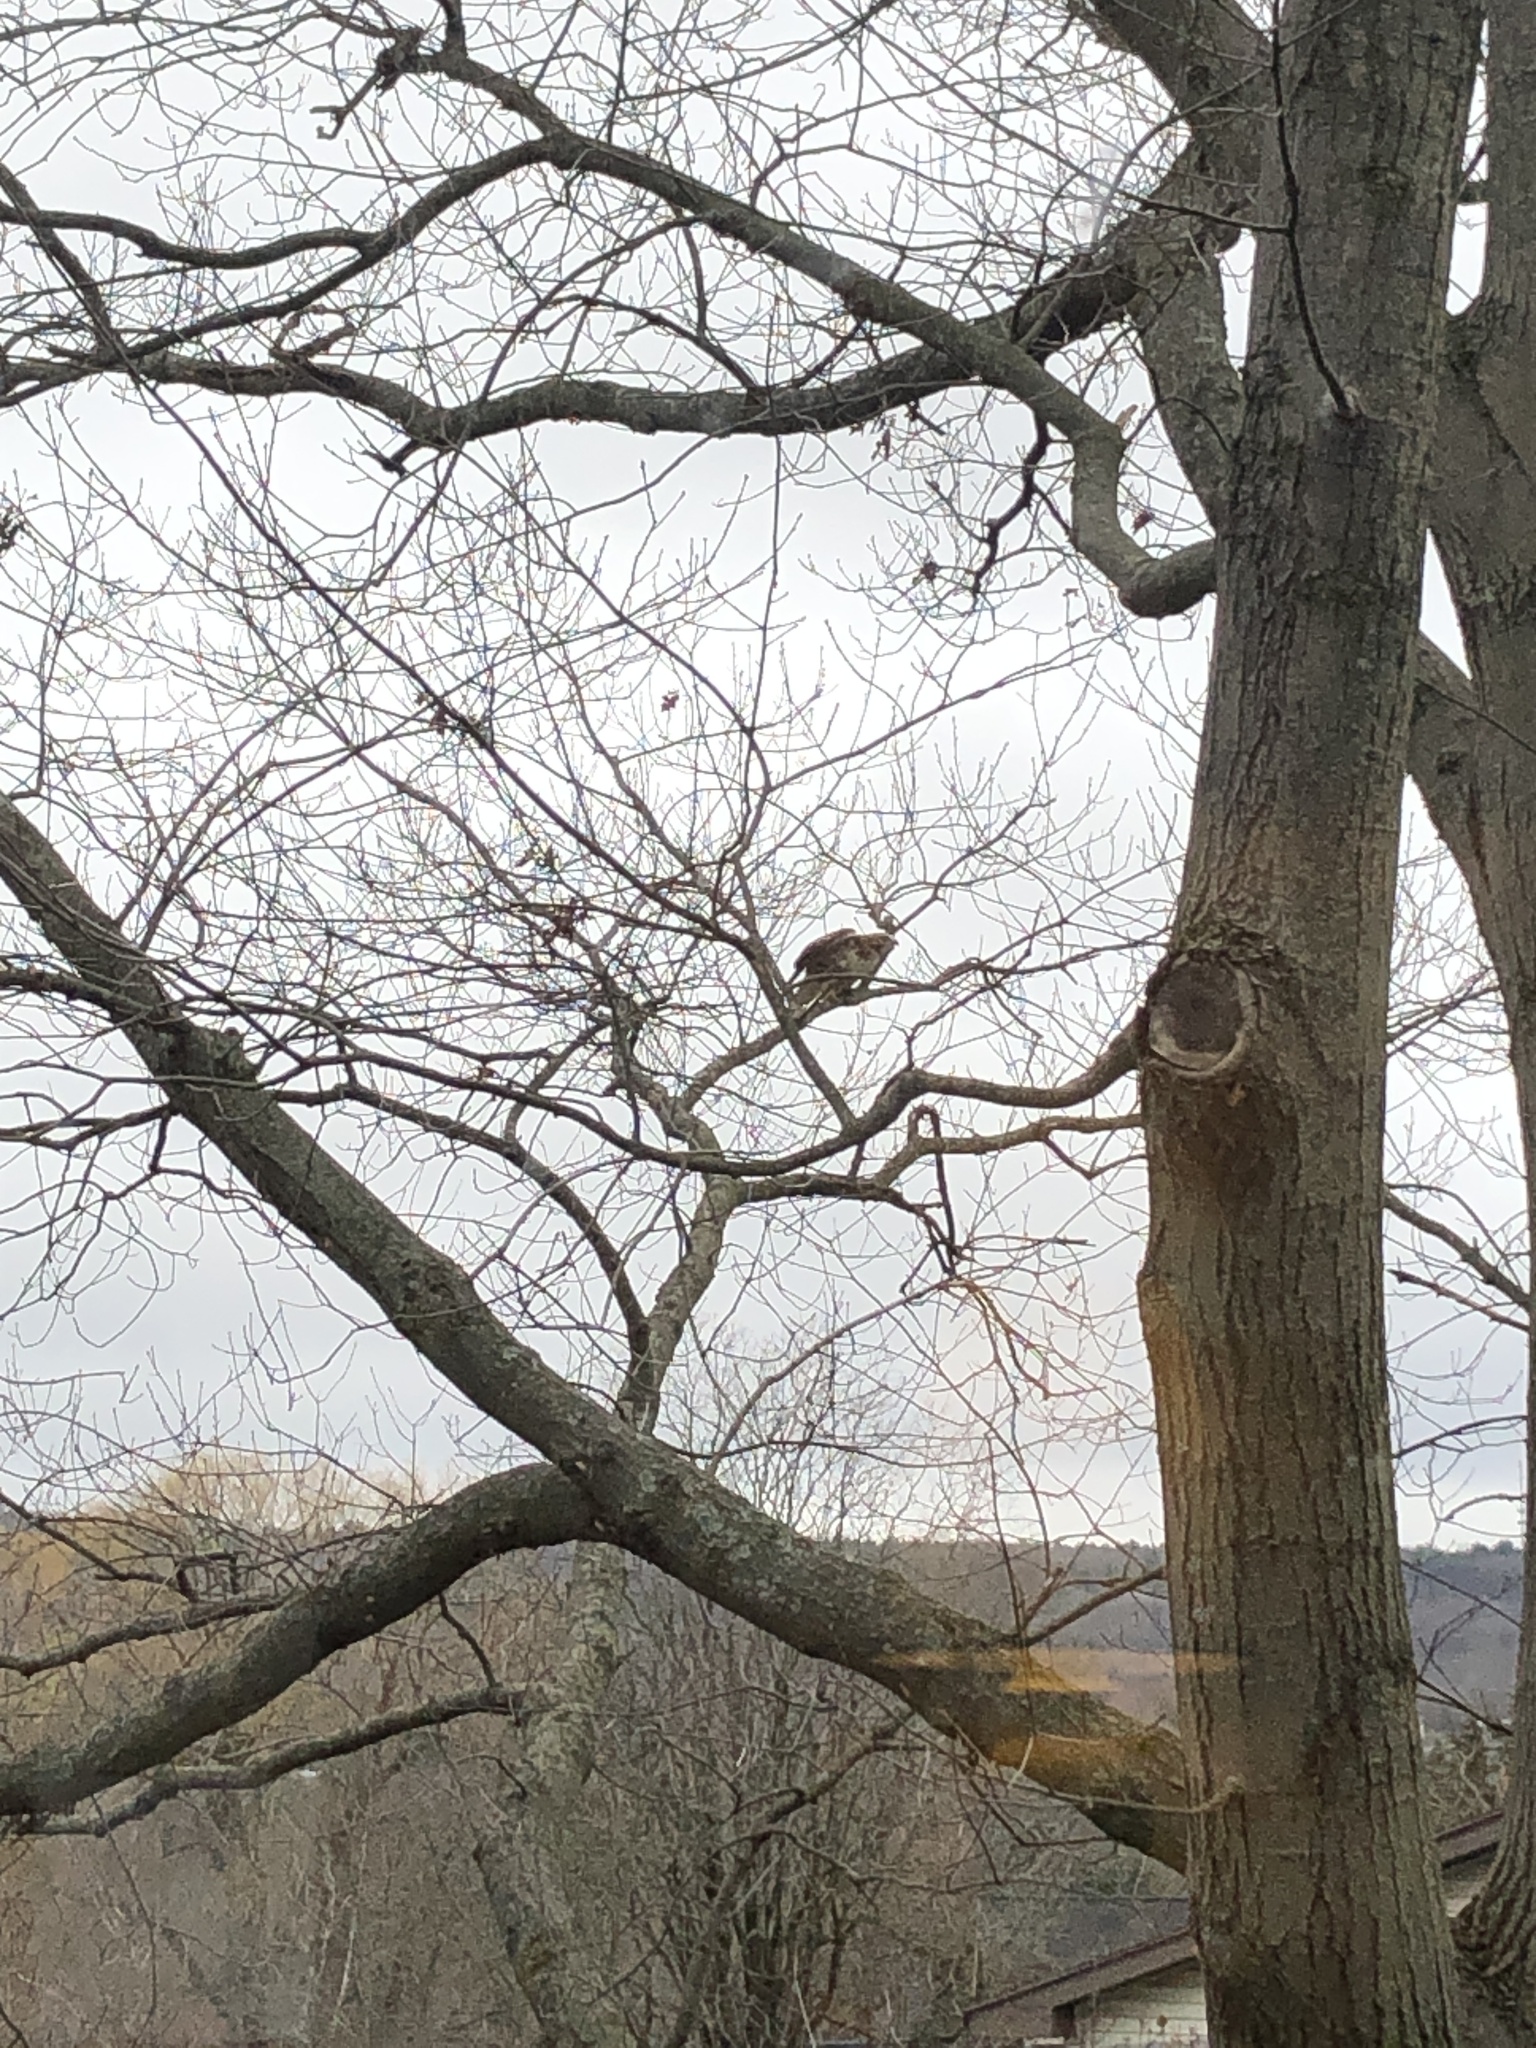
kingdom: Animalia
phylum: Chordata
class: Aves
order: Accipitriformes
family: Accipitridae
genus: Buteo
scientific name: Buteo jamaicensis
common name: Red-tailed hawk
